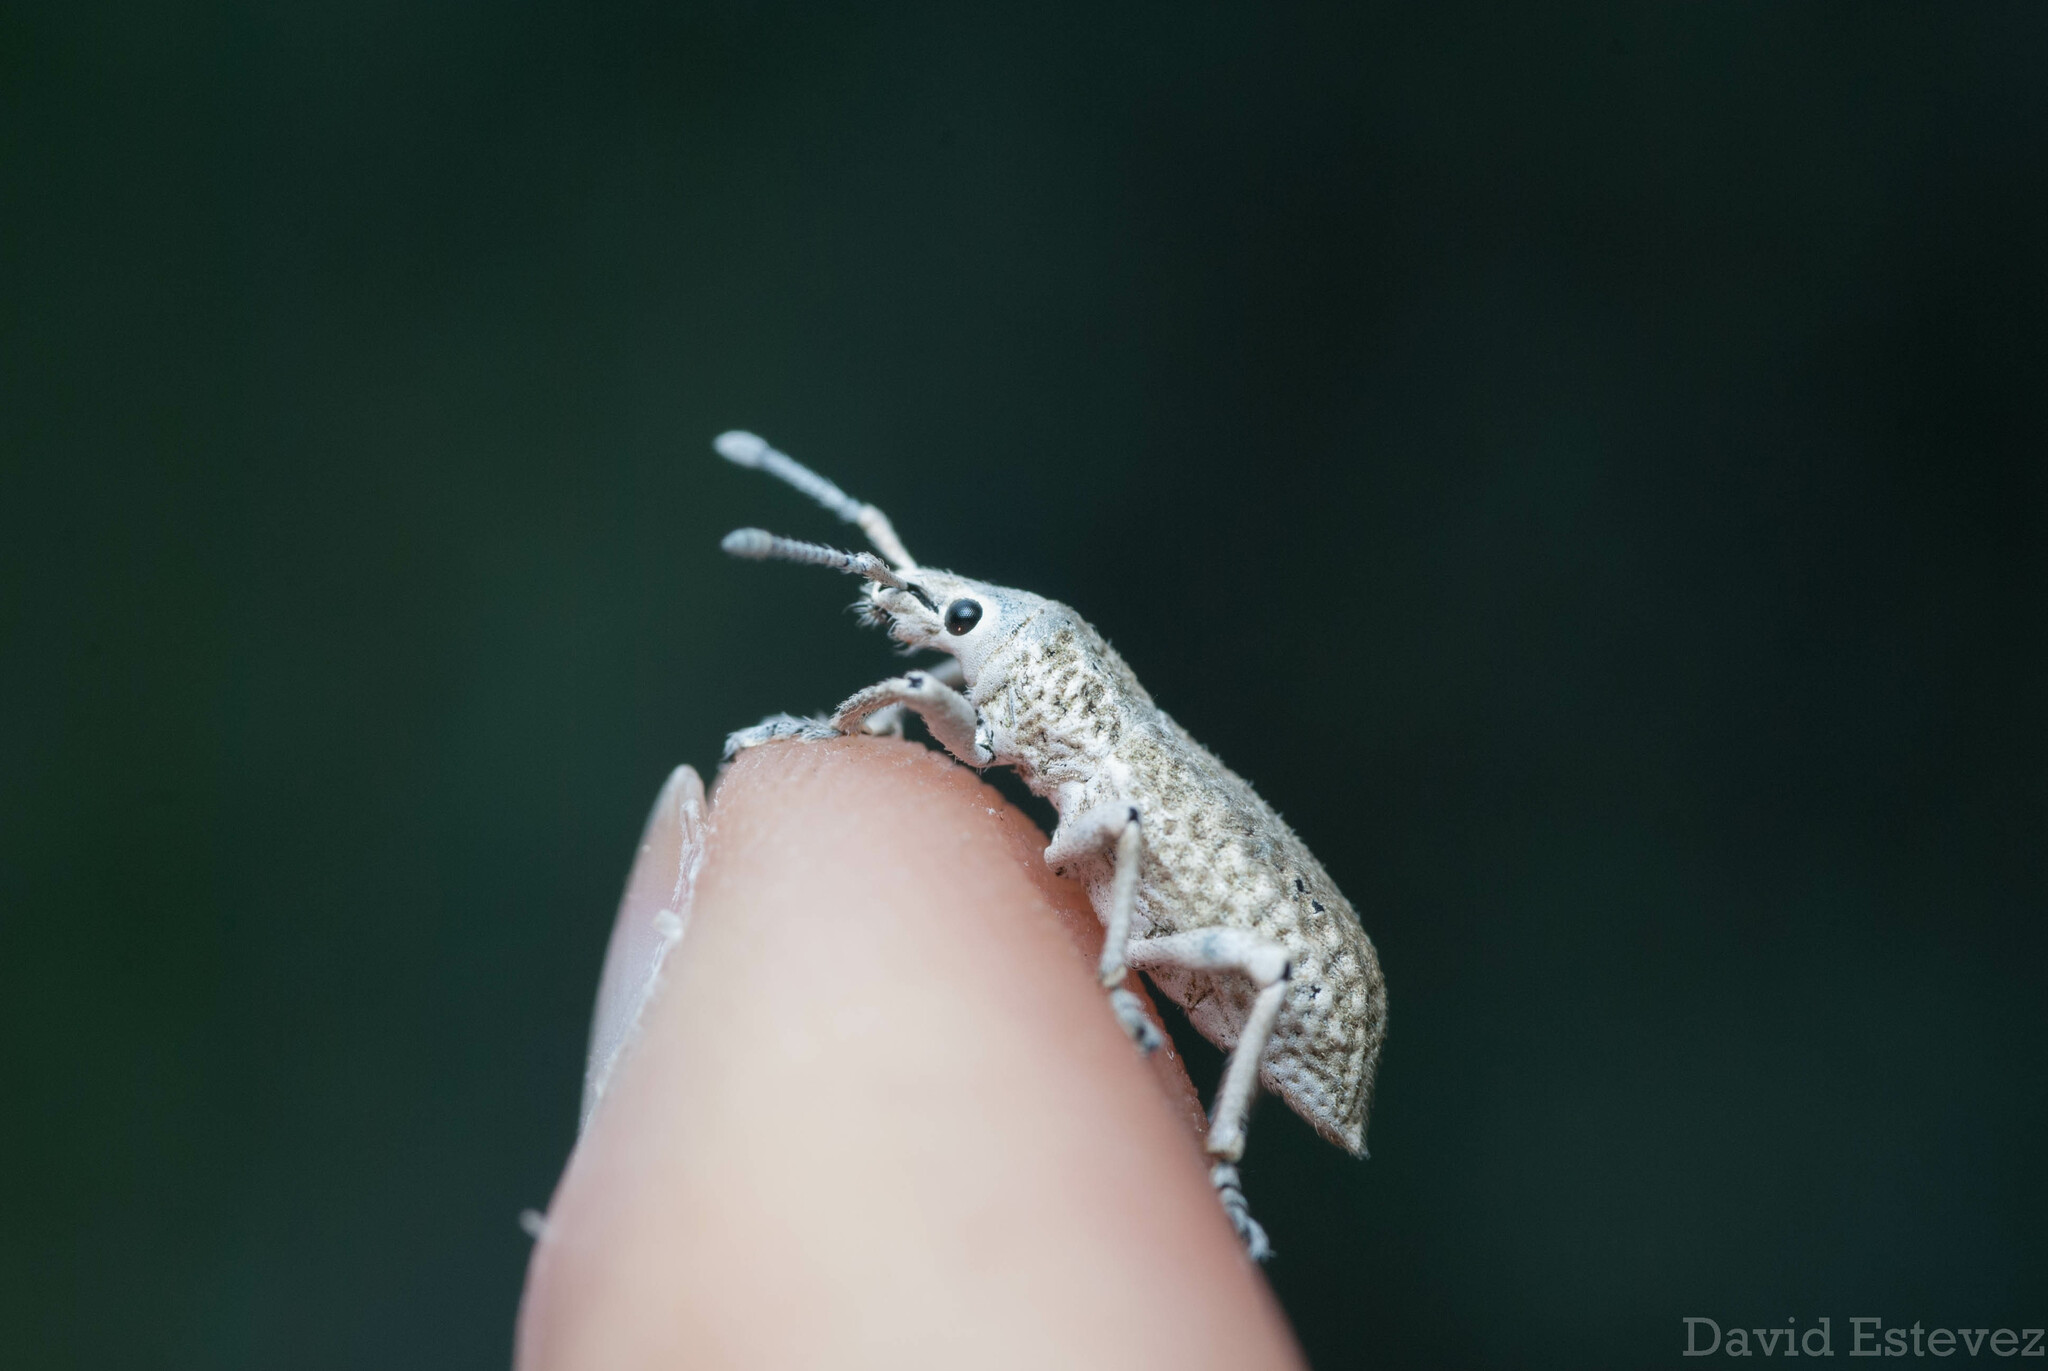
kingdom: Animalia
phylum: Arthropoda
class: Insecta
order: Coleoptera
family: Curculionidae
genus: Compsus
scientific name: Compsus canescens
